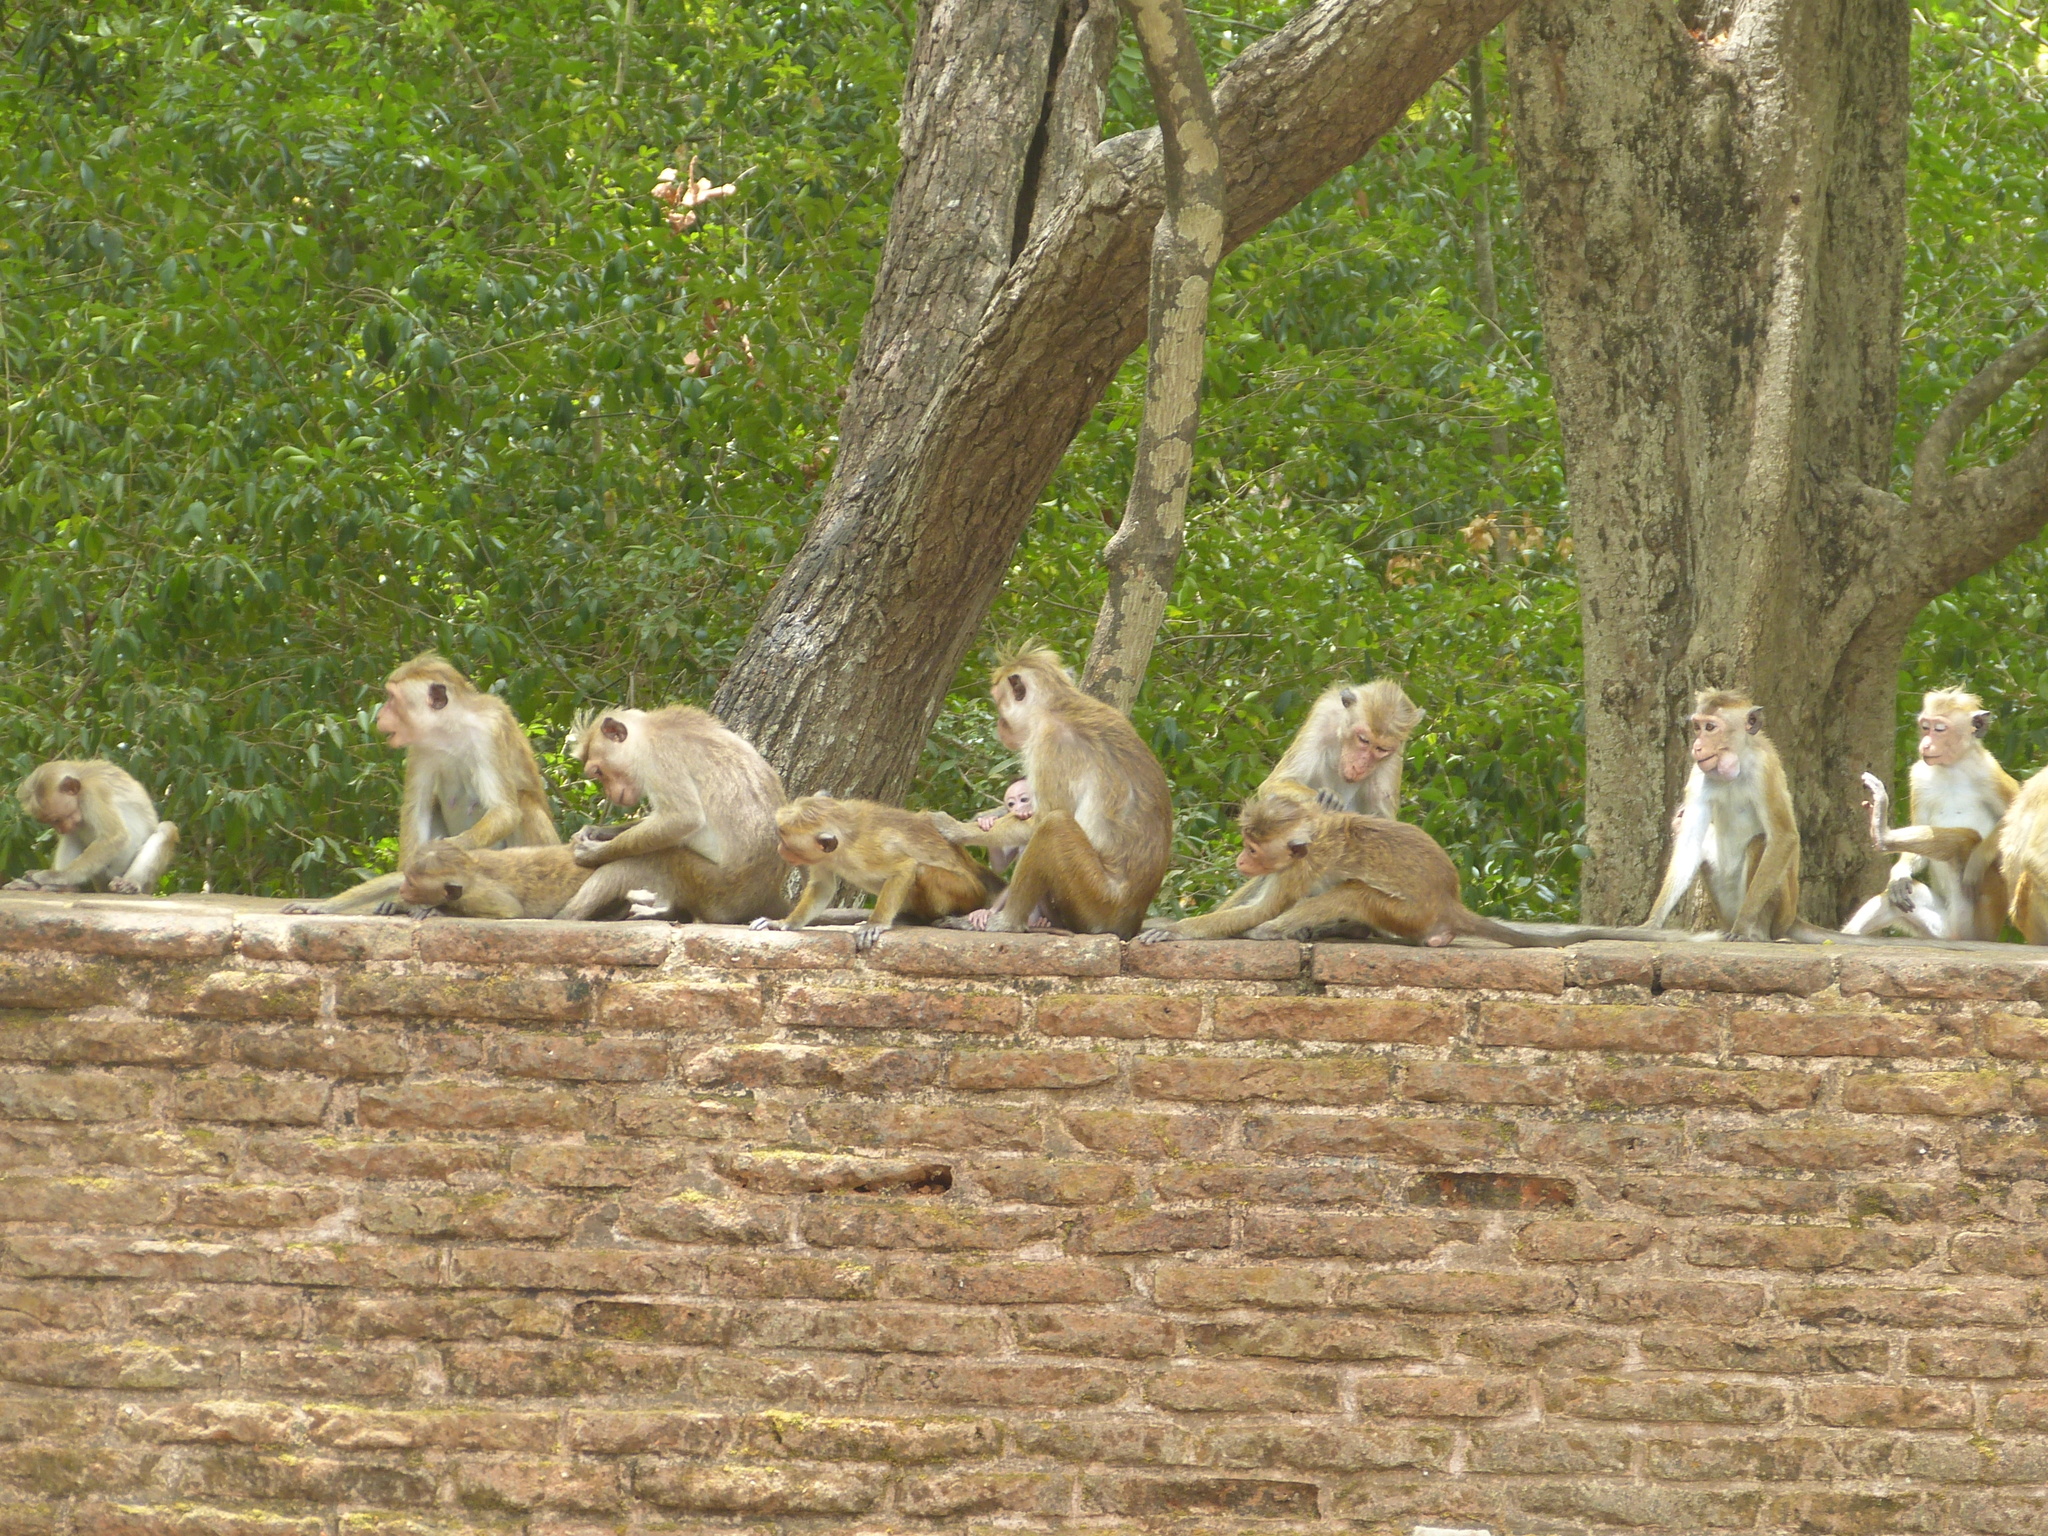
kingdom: Animalia
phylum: Chordata
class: Mammalia
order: Primates
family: Cercopithecidae
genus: Macaca
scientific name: Macaca sinica
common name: Toque macaque
